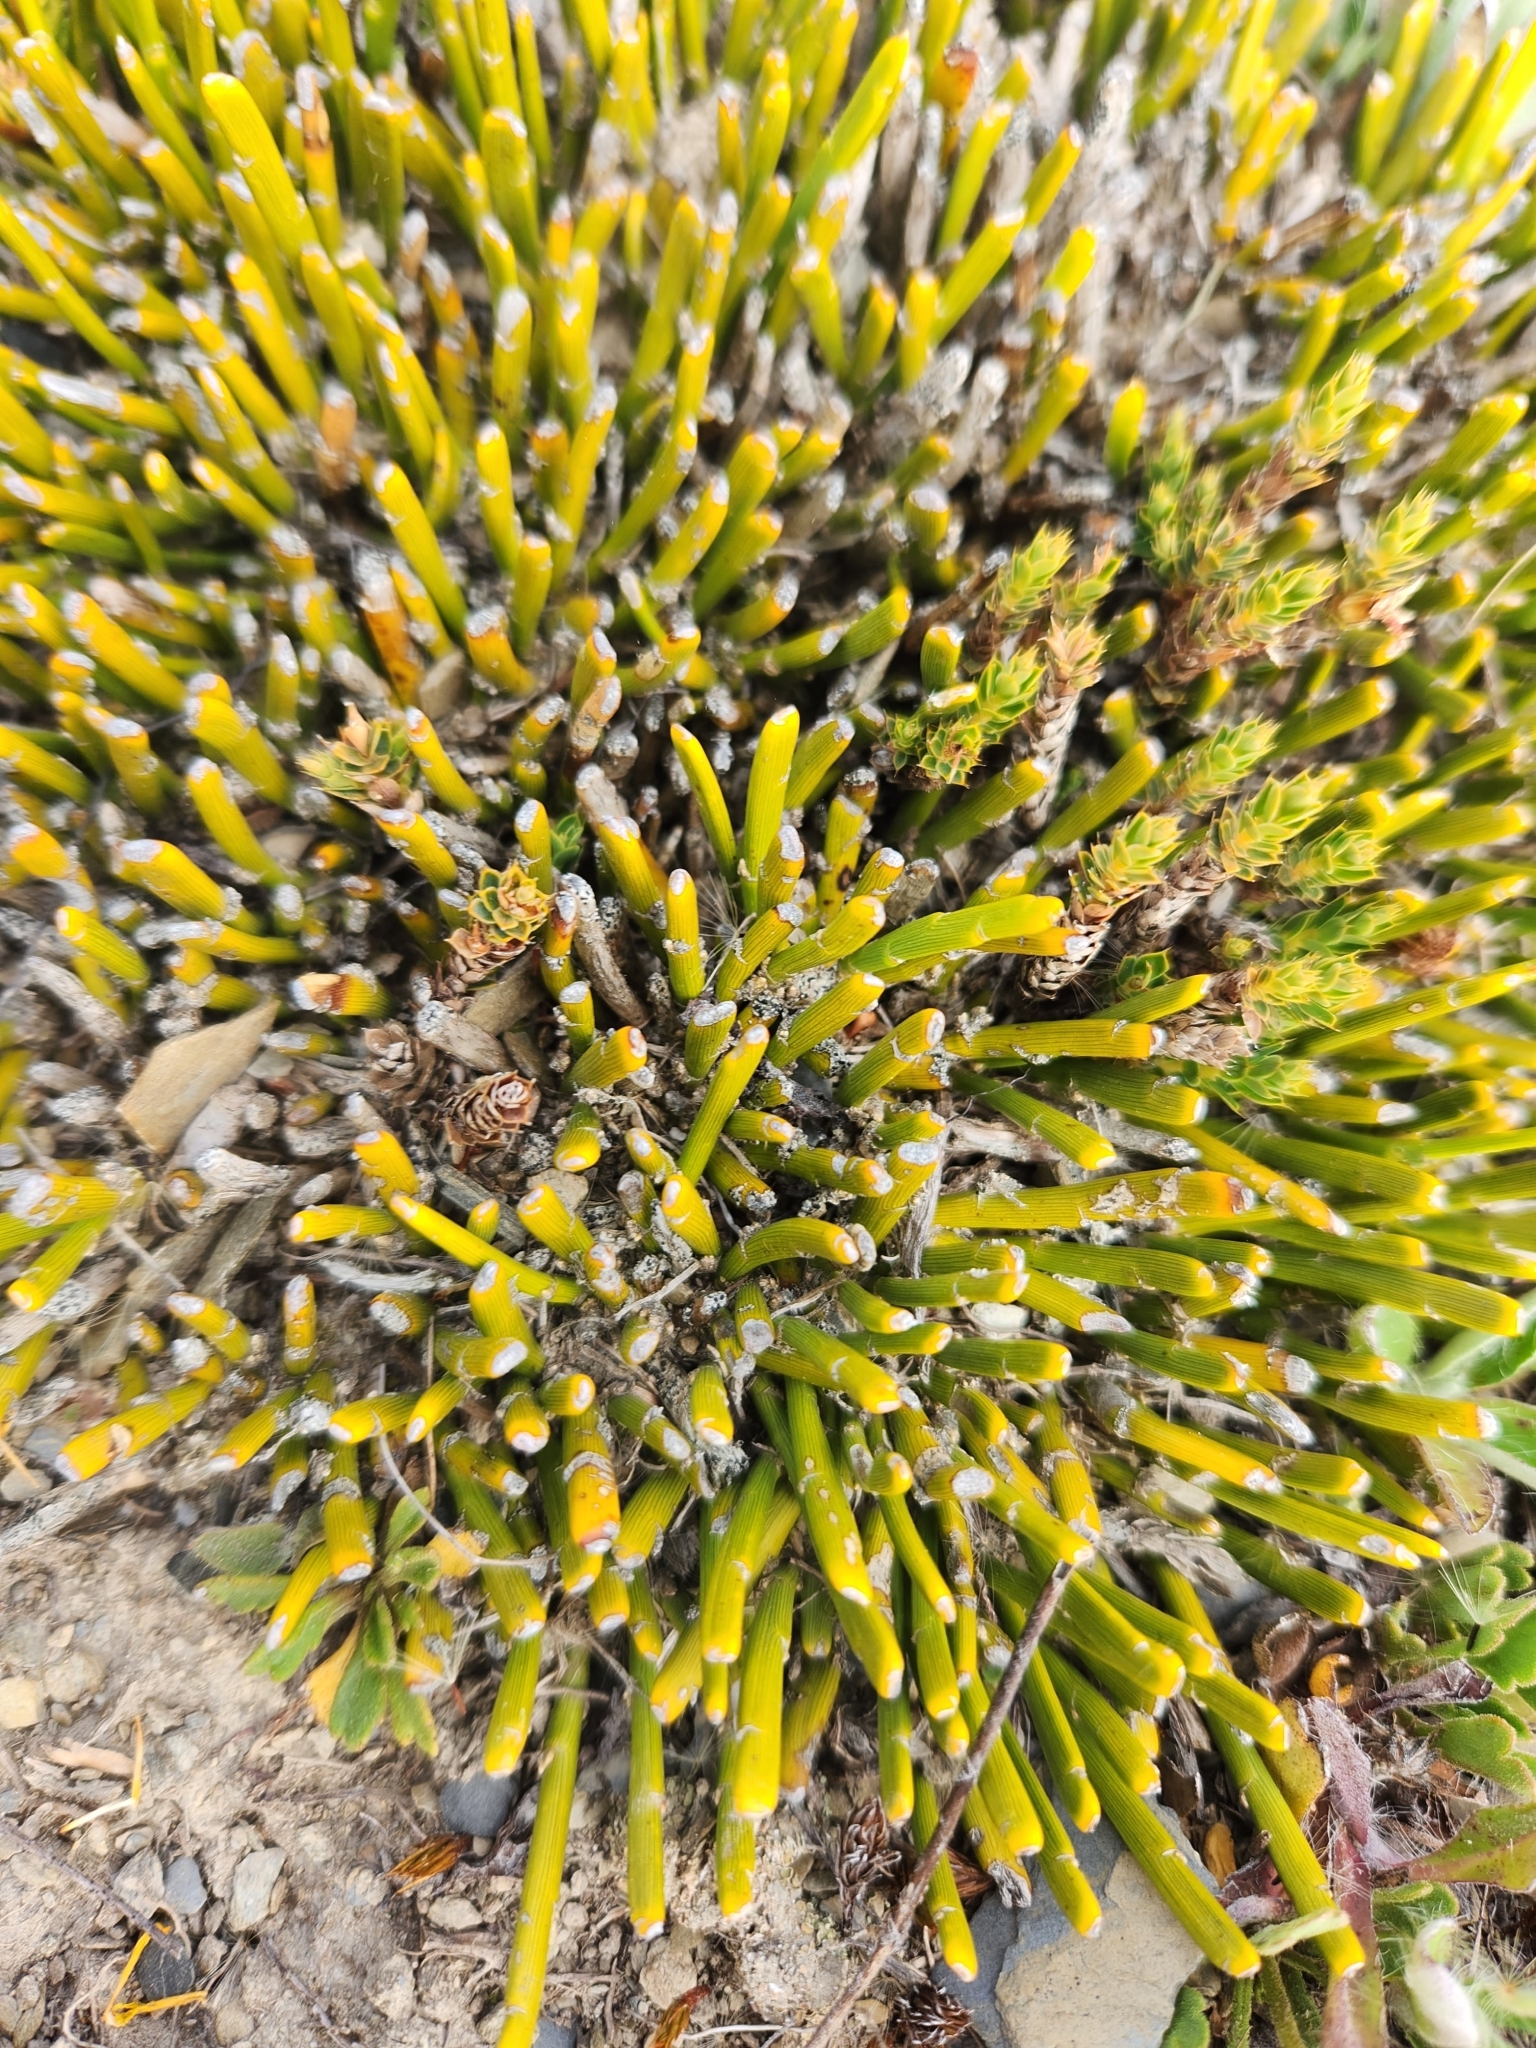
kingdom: Plantae
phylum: Tracheophyta
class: Magnoliopsida
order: Fabales
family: Fabaceae
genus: Carmichaelia
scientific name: Carmichaelia vexillata
